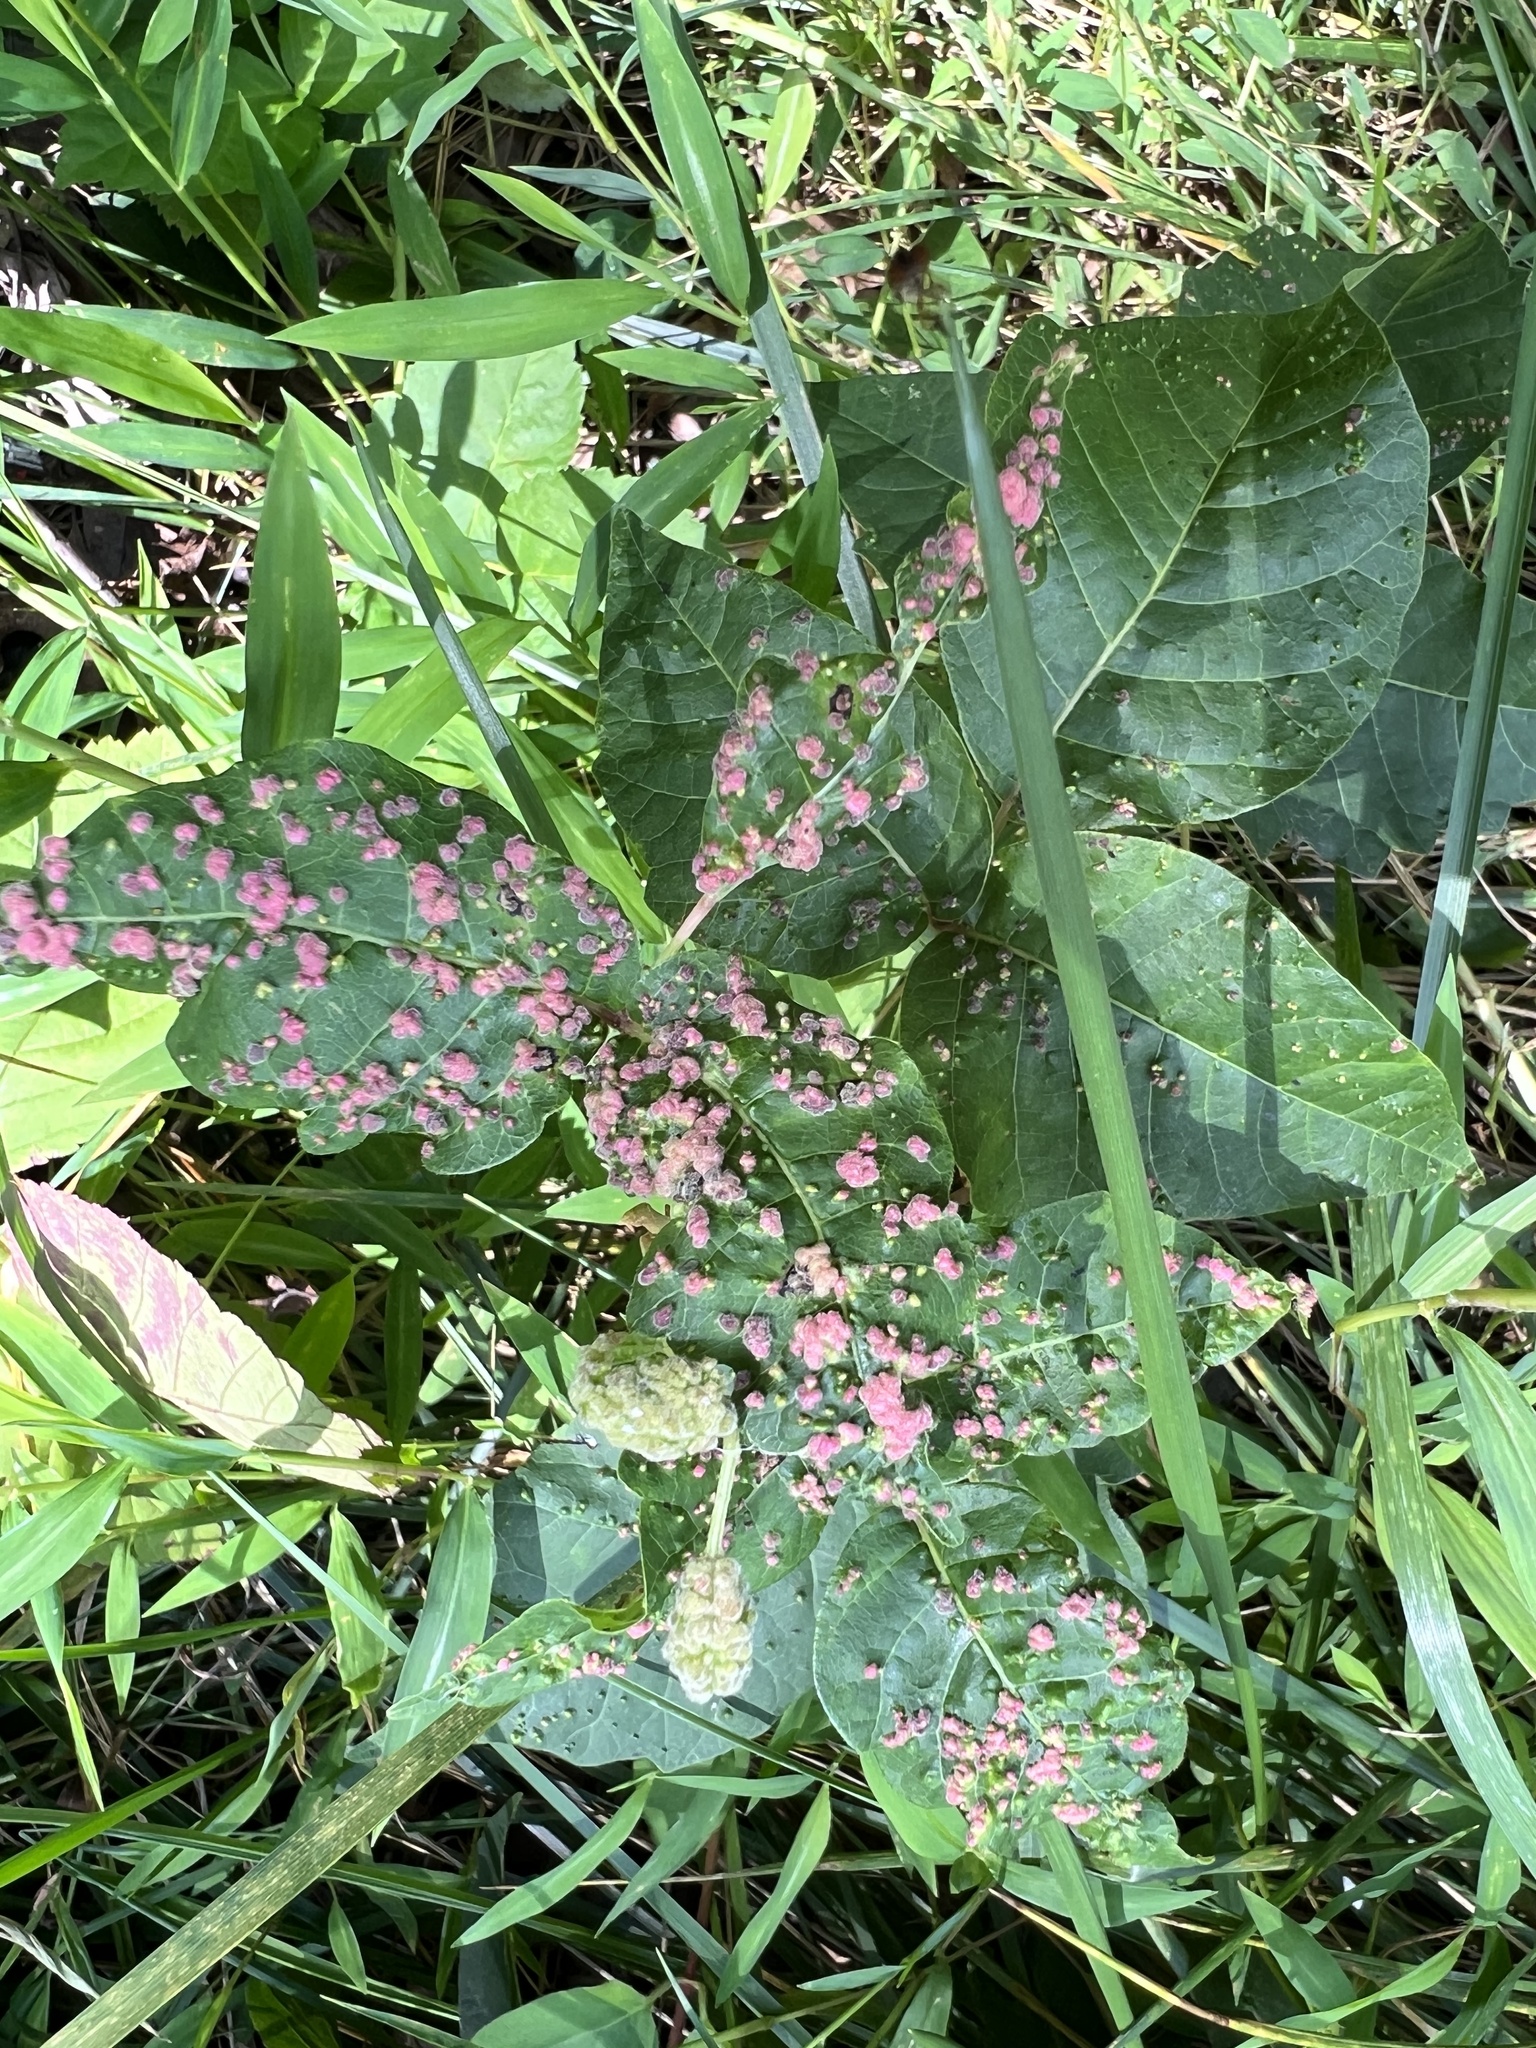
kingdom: Animalia
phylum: Arthropoda
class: Arachnida
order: Trombidiformes
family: Eriophyidae
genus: Aculops
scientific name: Aculops
